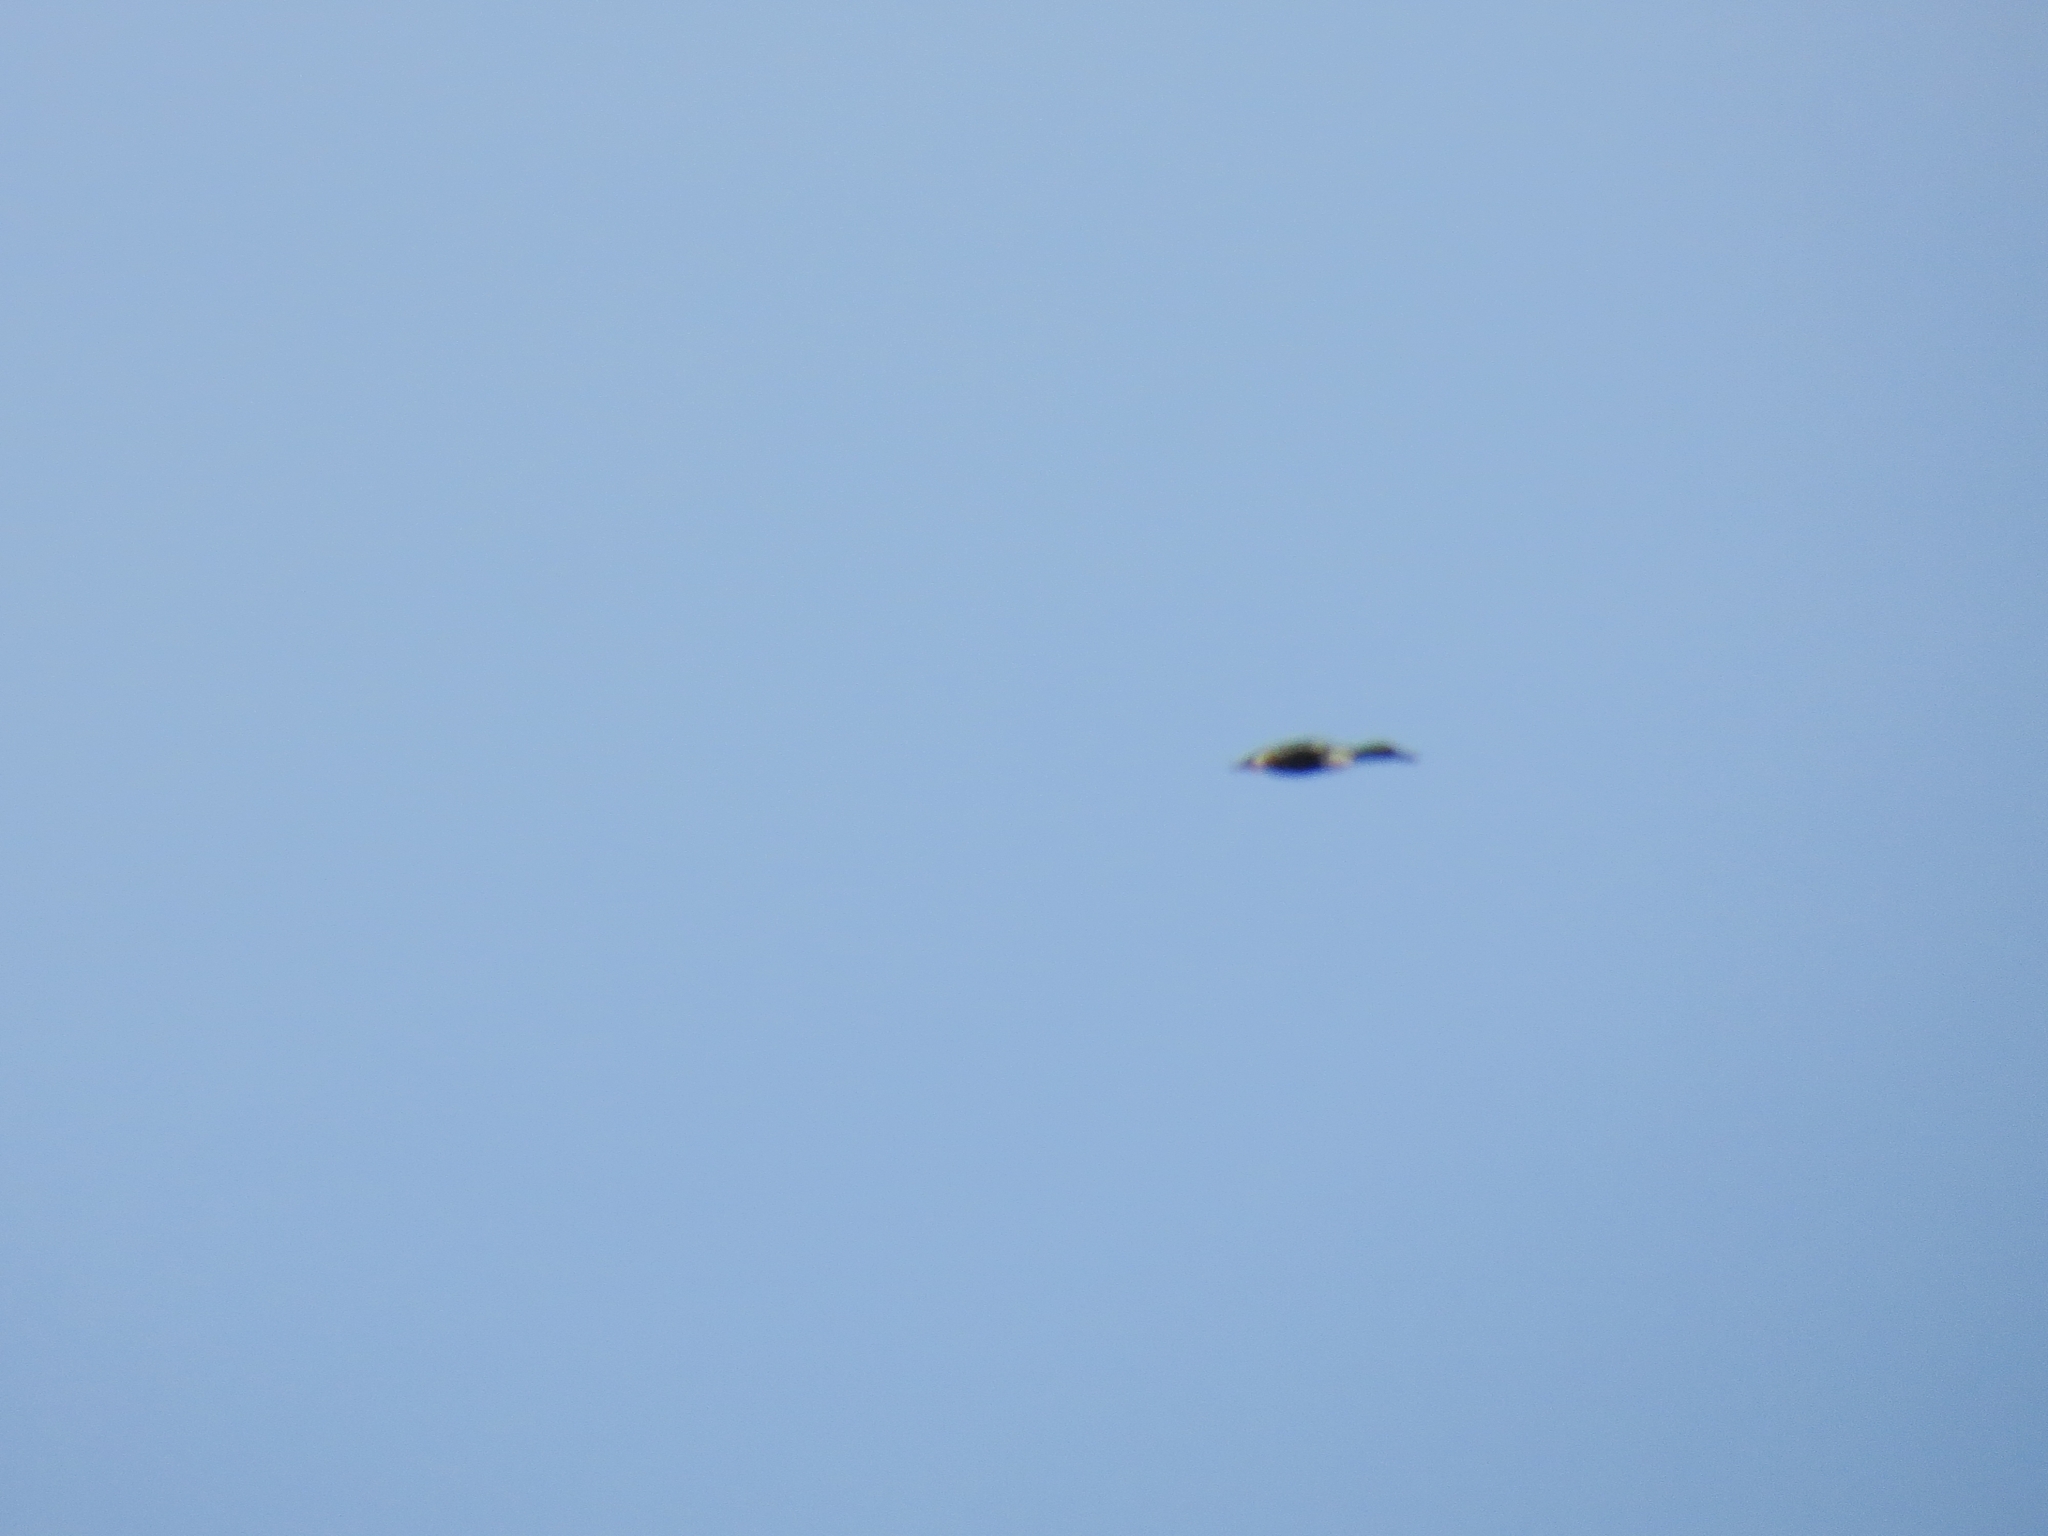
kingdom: Animalia
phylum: Chordata
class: Aves
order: Anseriformes
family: Anatidae
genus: Spatula
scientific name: Spatula clypeata
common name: Northern shoveler
